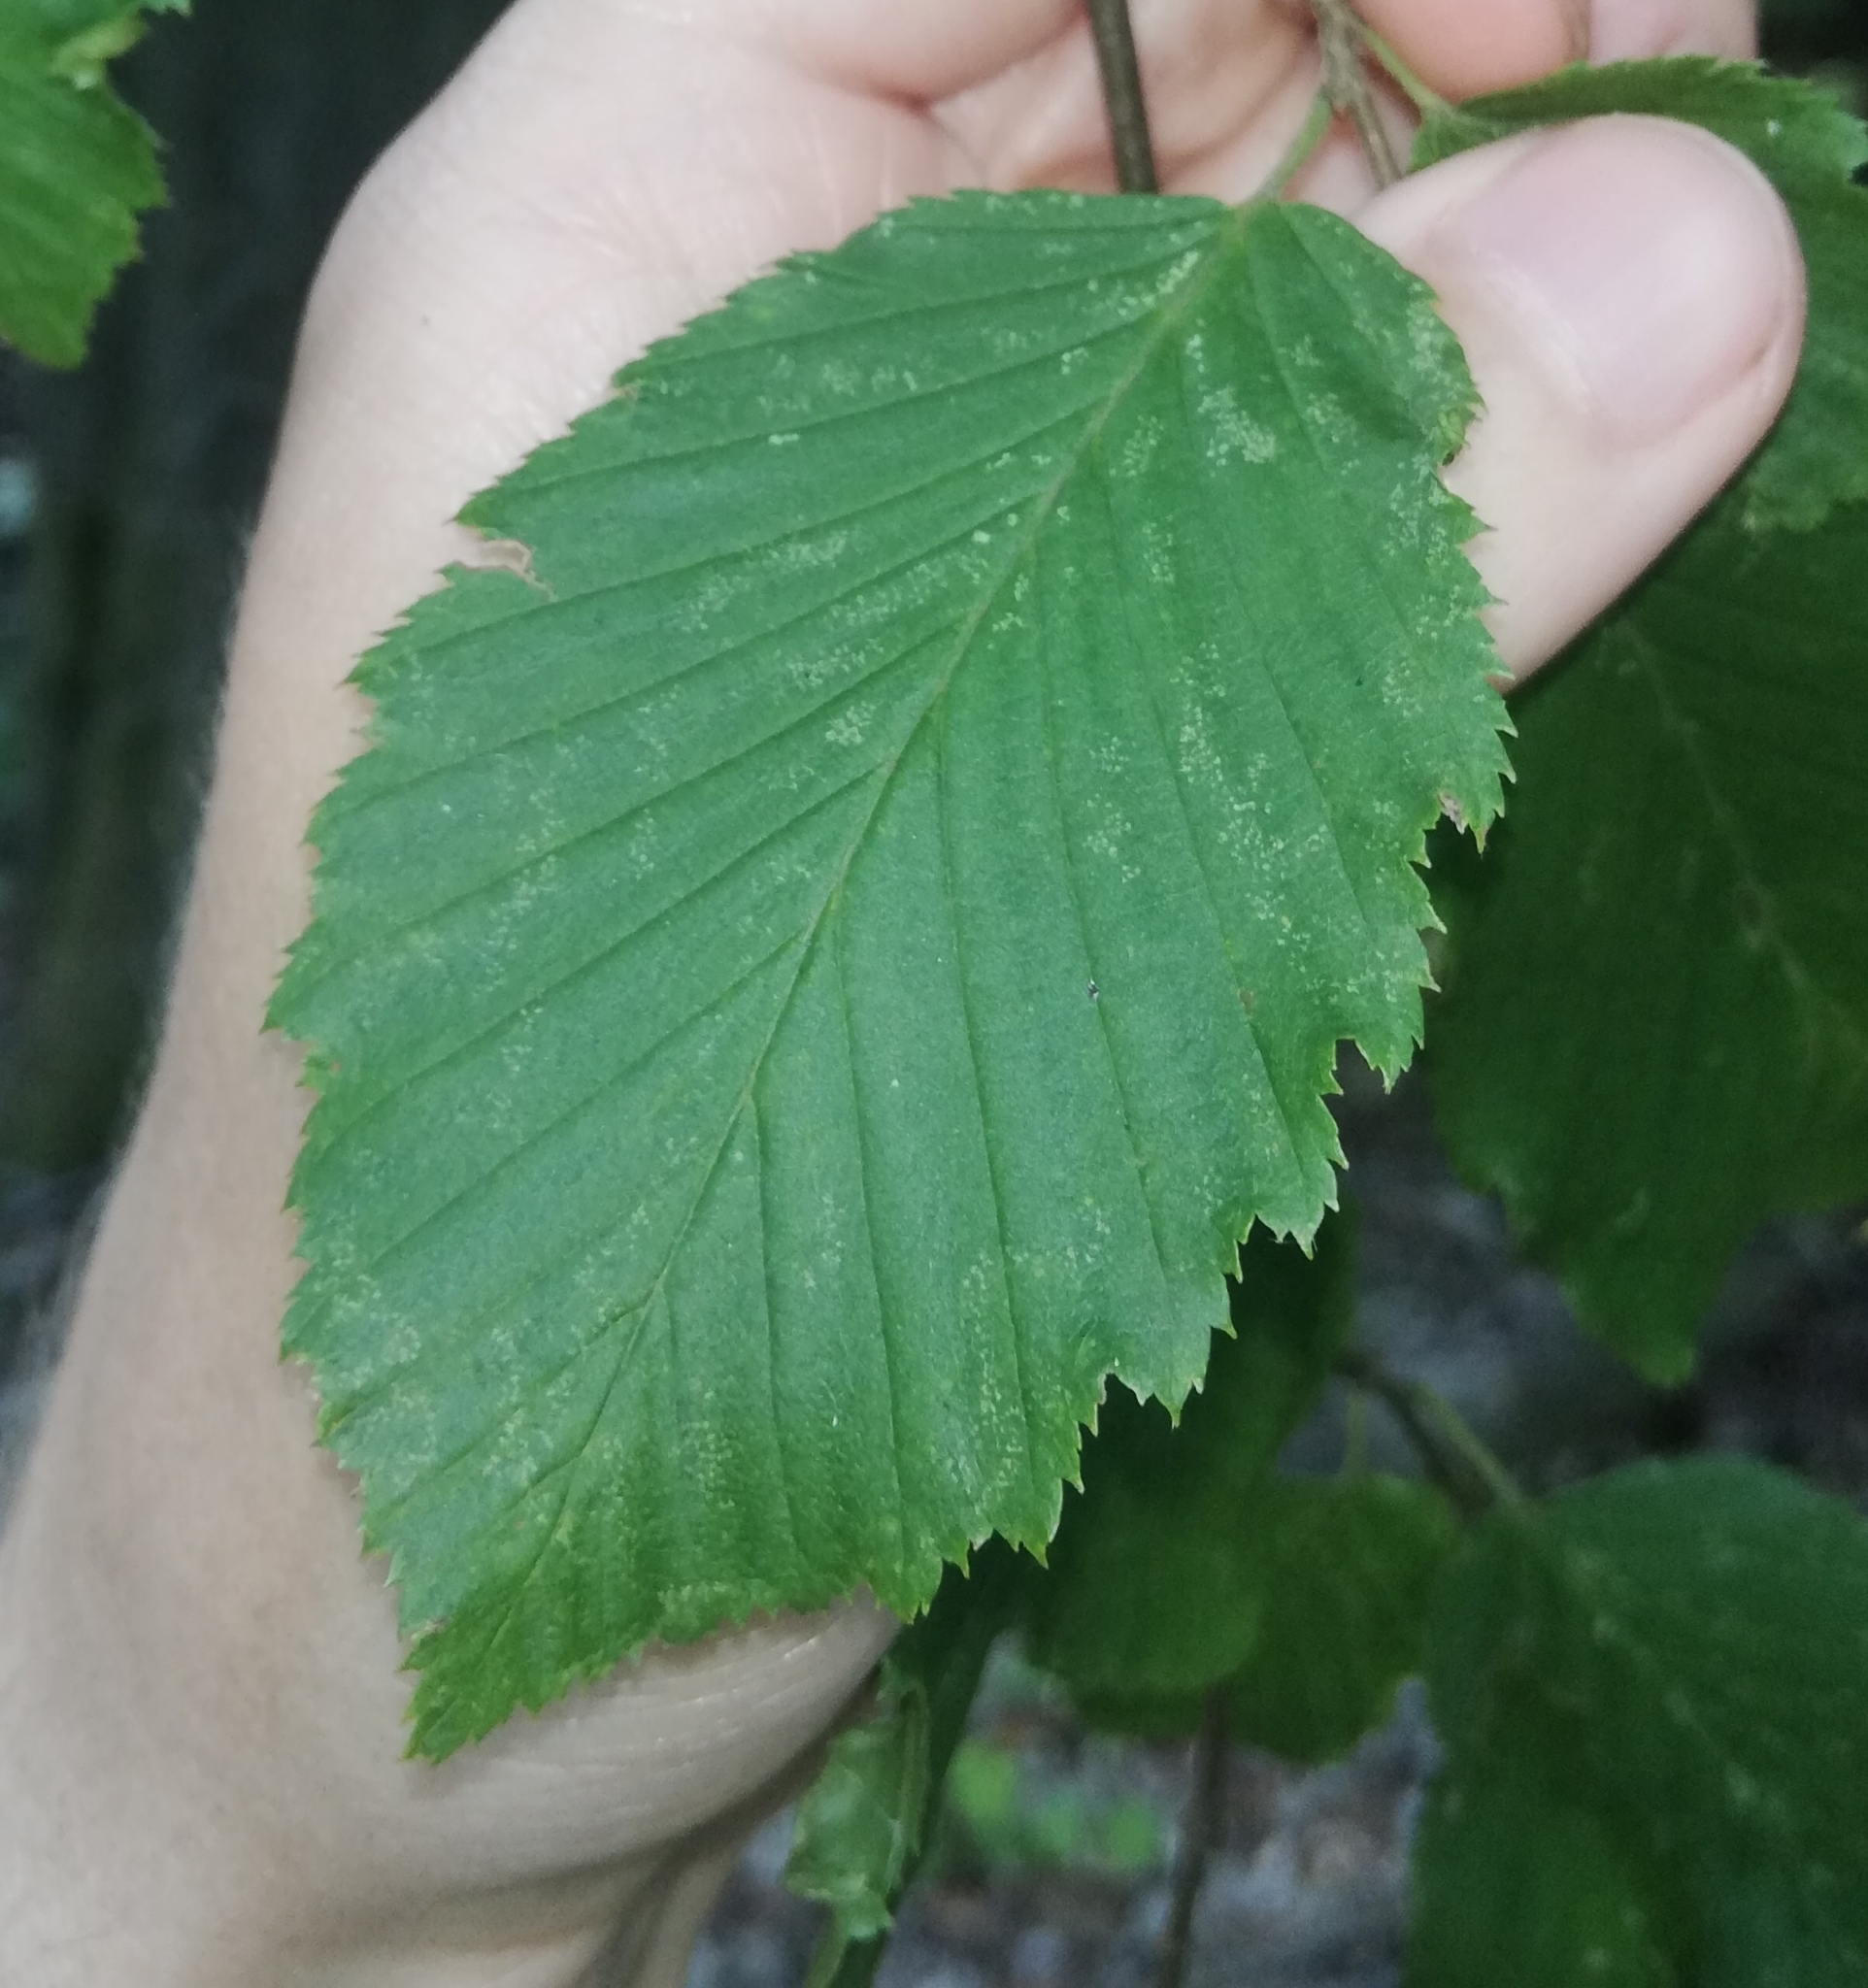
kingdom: Plantae
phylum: Tracheophyta
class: Magnoliopsida
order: Fagales
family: Betulaceae
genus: Carpinus
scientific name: Carpinus betulus
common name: Hornbeam
